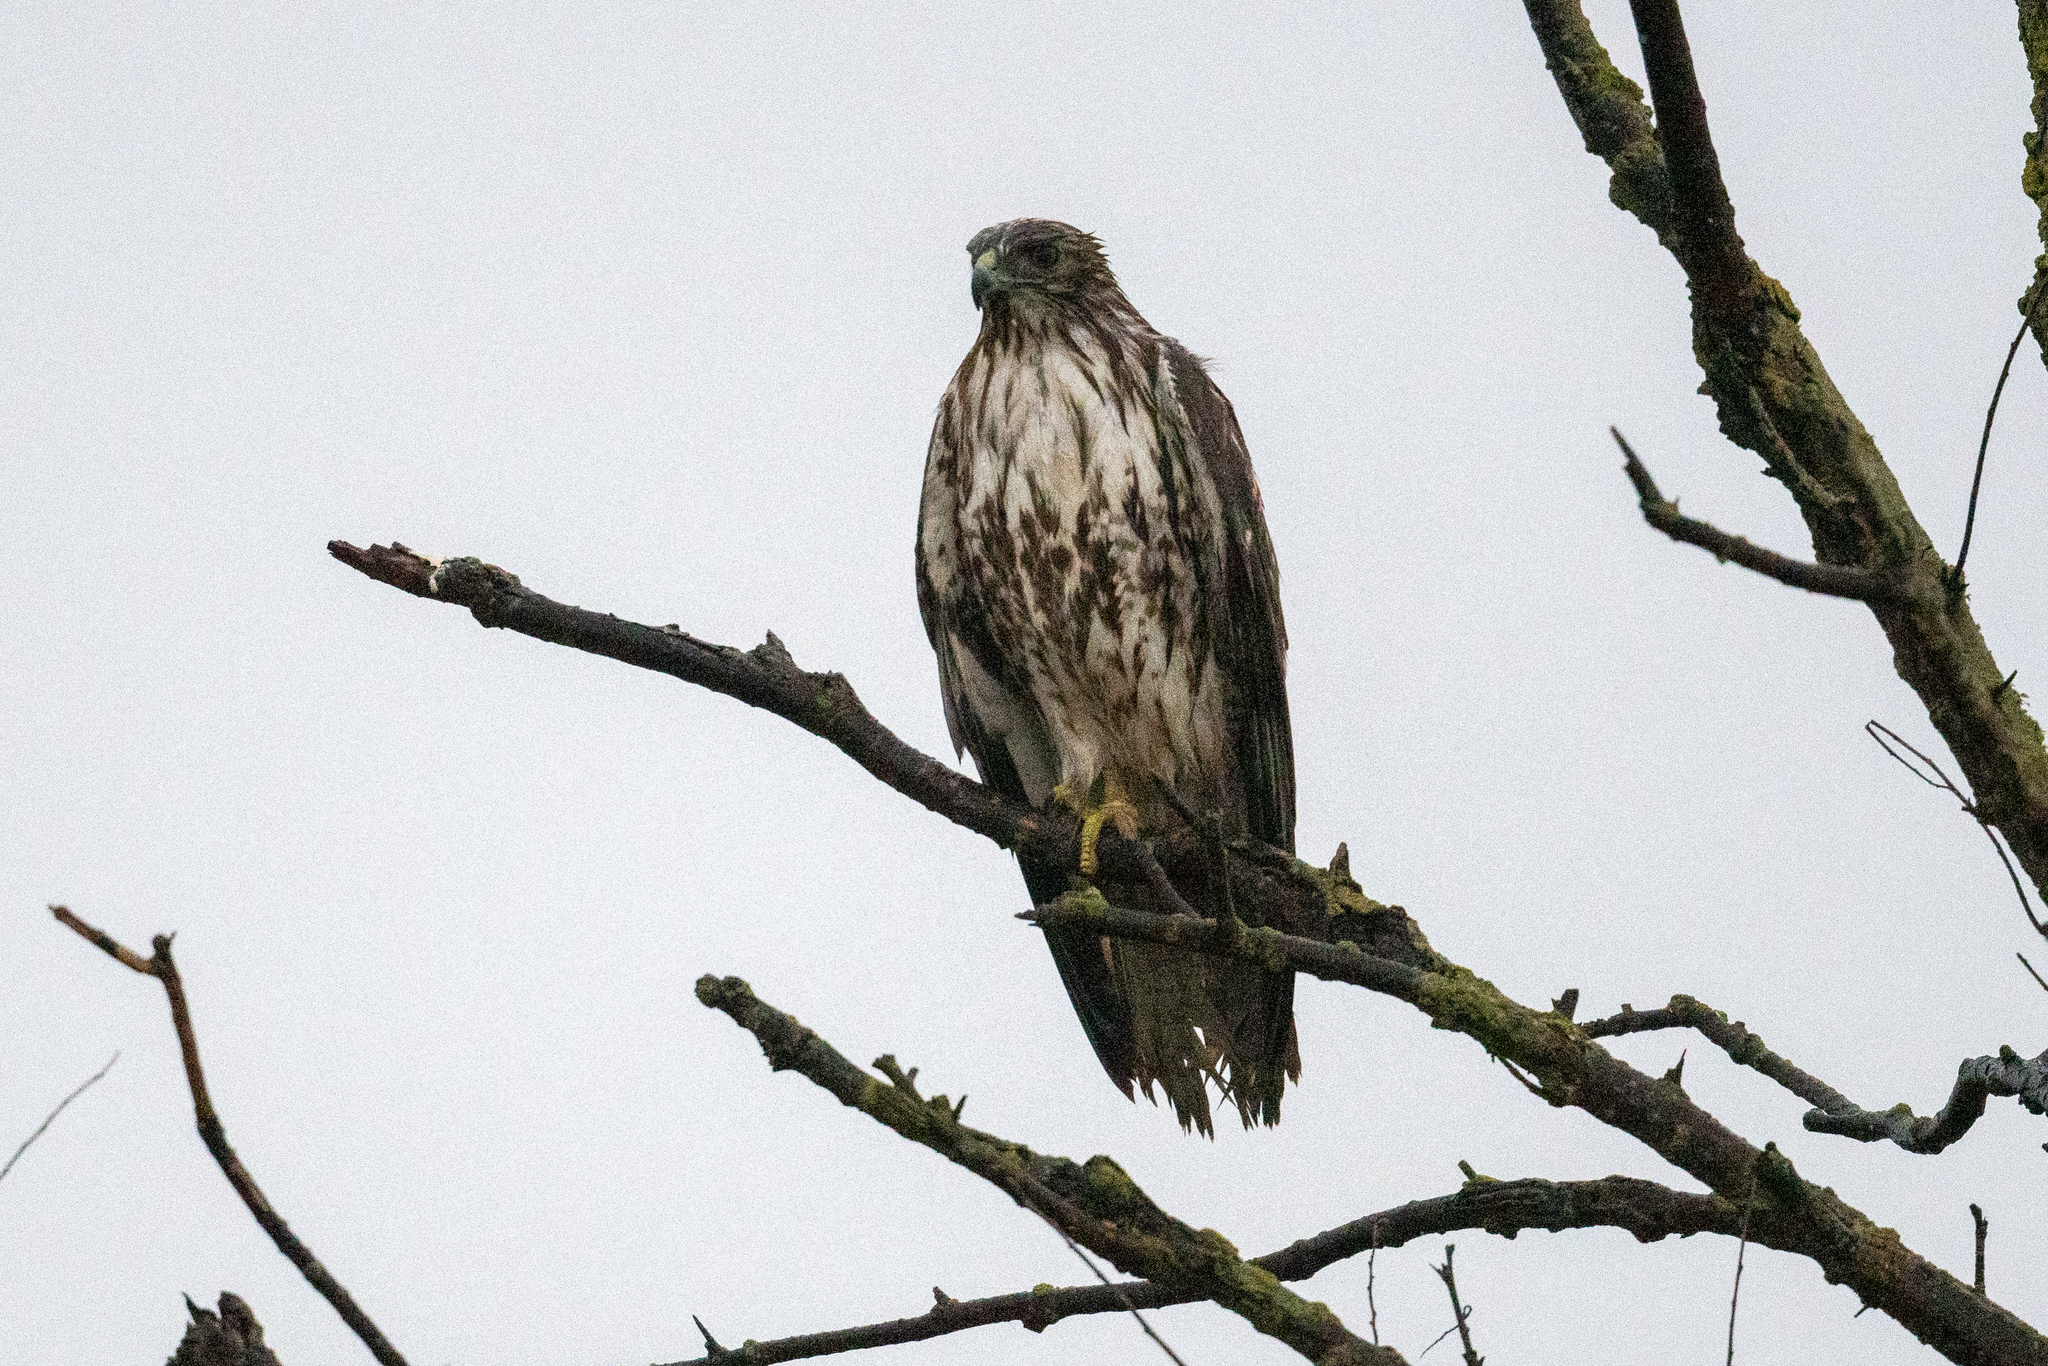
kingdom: Animalia
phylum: Chordata
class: Aves
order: Accipitriformes
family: Accipitridae
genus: Buteo
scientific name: Buteo jamaicensis
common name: Red-tailed hawk
